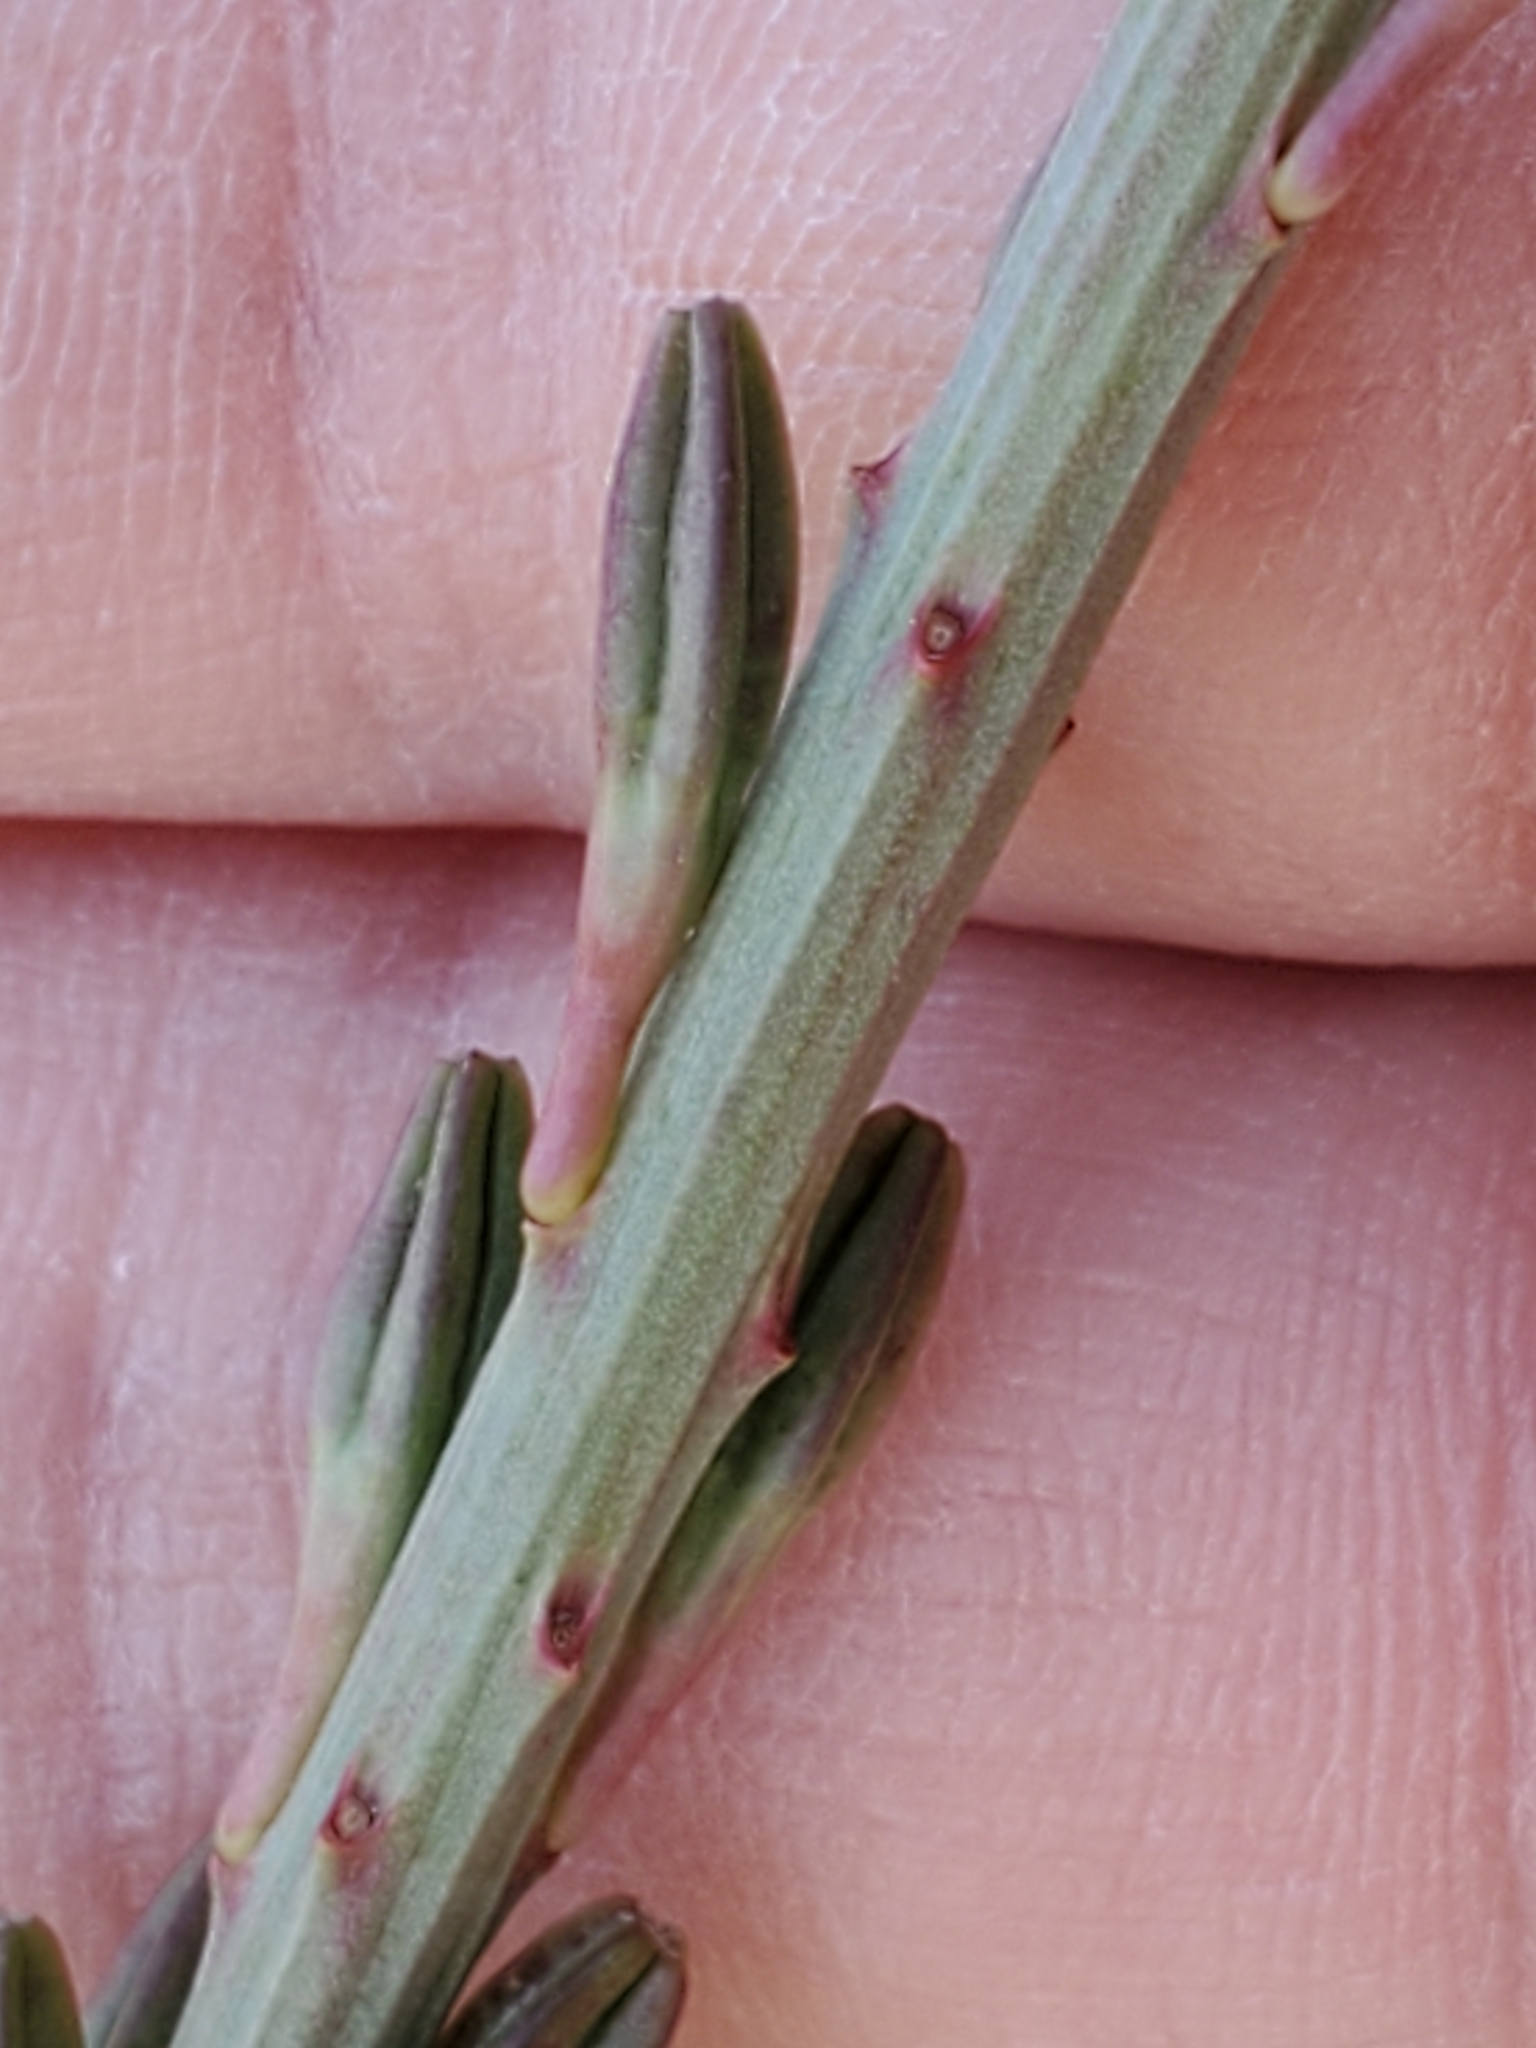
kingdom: Plantae
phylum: Tracheophyta
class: Magnoliopsida
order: Myrtales
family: Onagraceae
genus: Oenothera
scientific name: Oenothera suffrutescens
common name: Scarlet beeblossom
